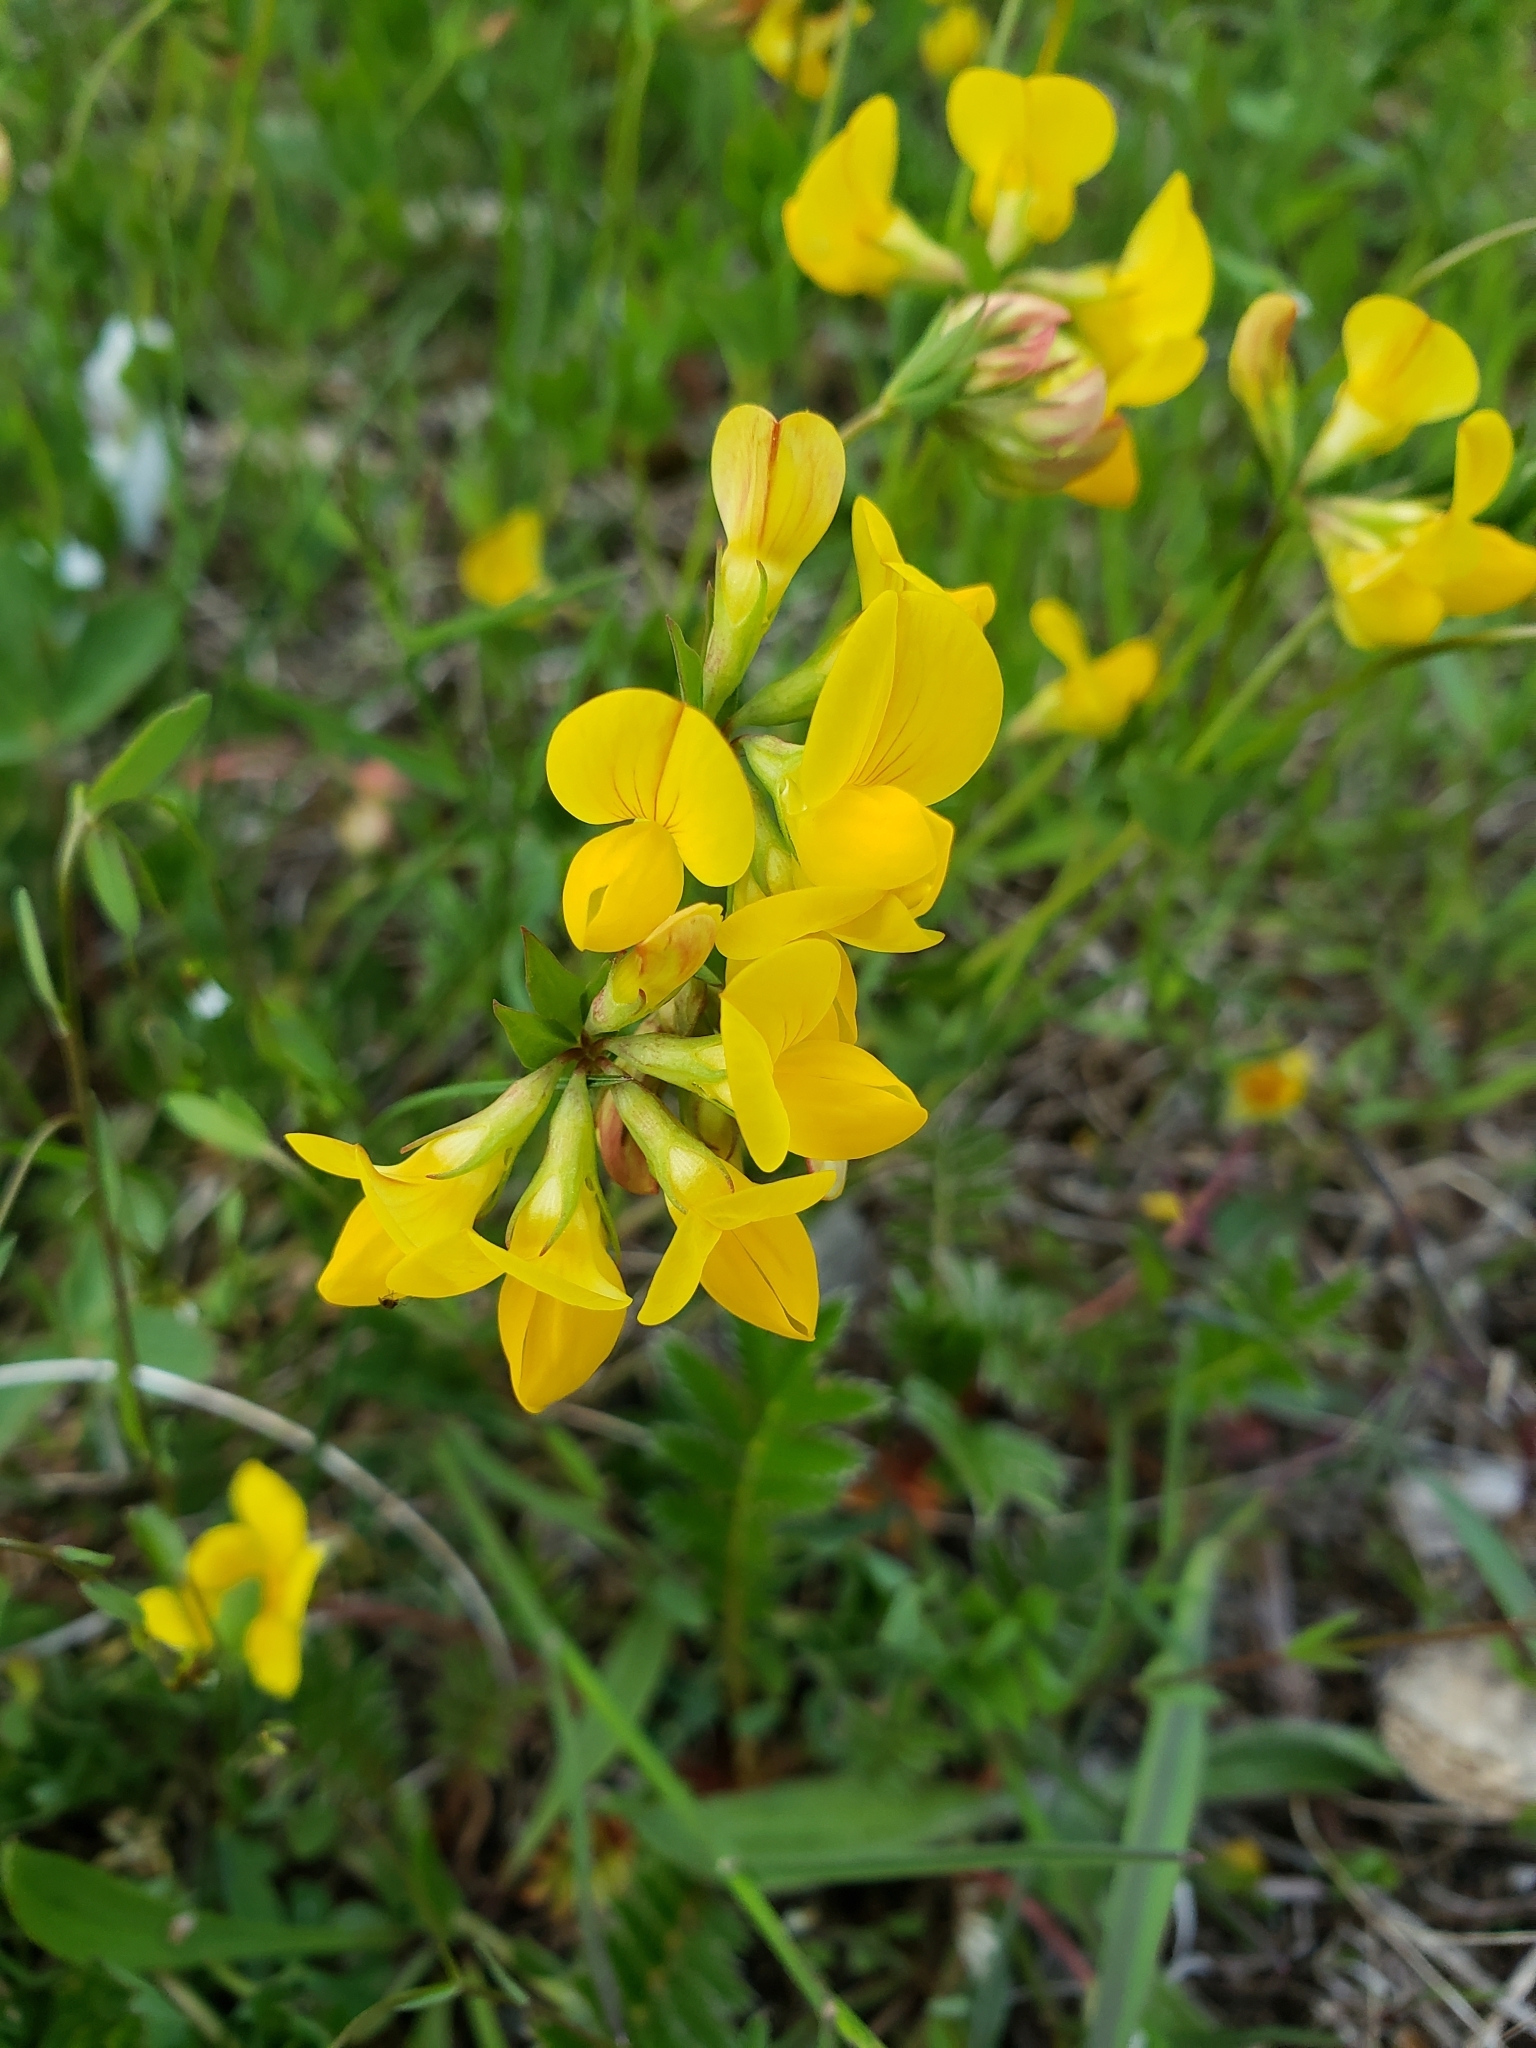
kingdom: Plantae
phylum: Tracheophyta
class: Magnoliopsida
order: Fabales
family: Fabaceae
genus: Lotus
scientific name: Lotus corniculatus
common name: Common bird's-foot-trefoil
